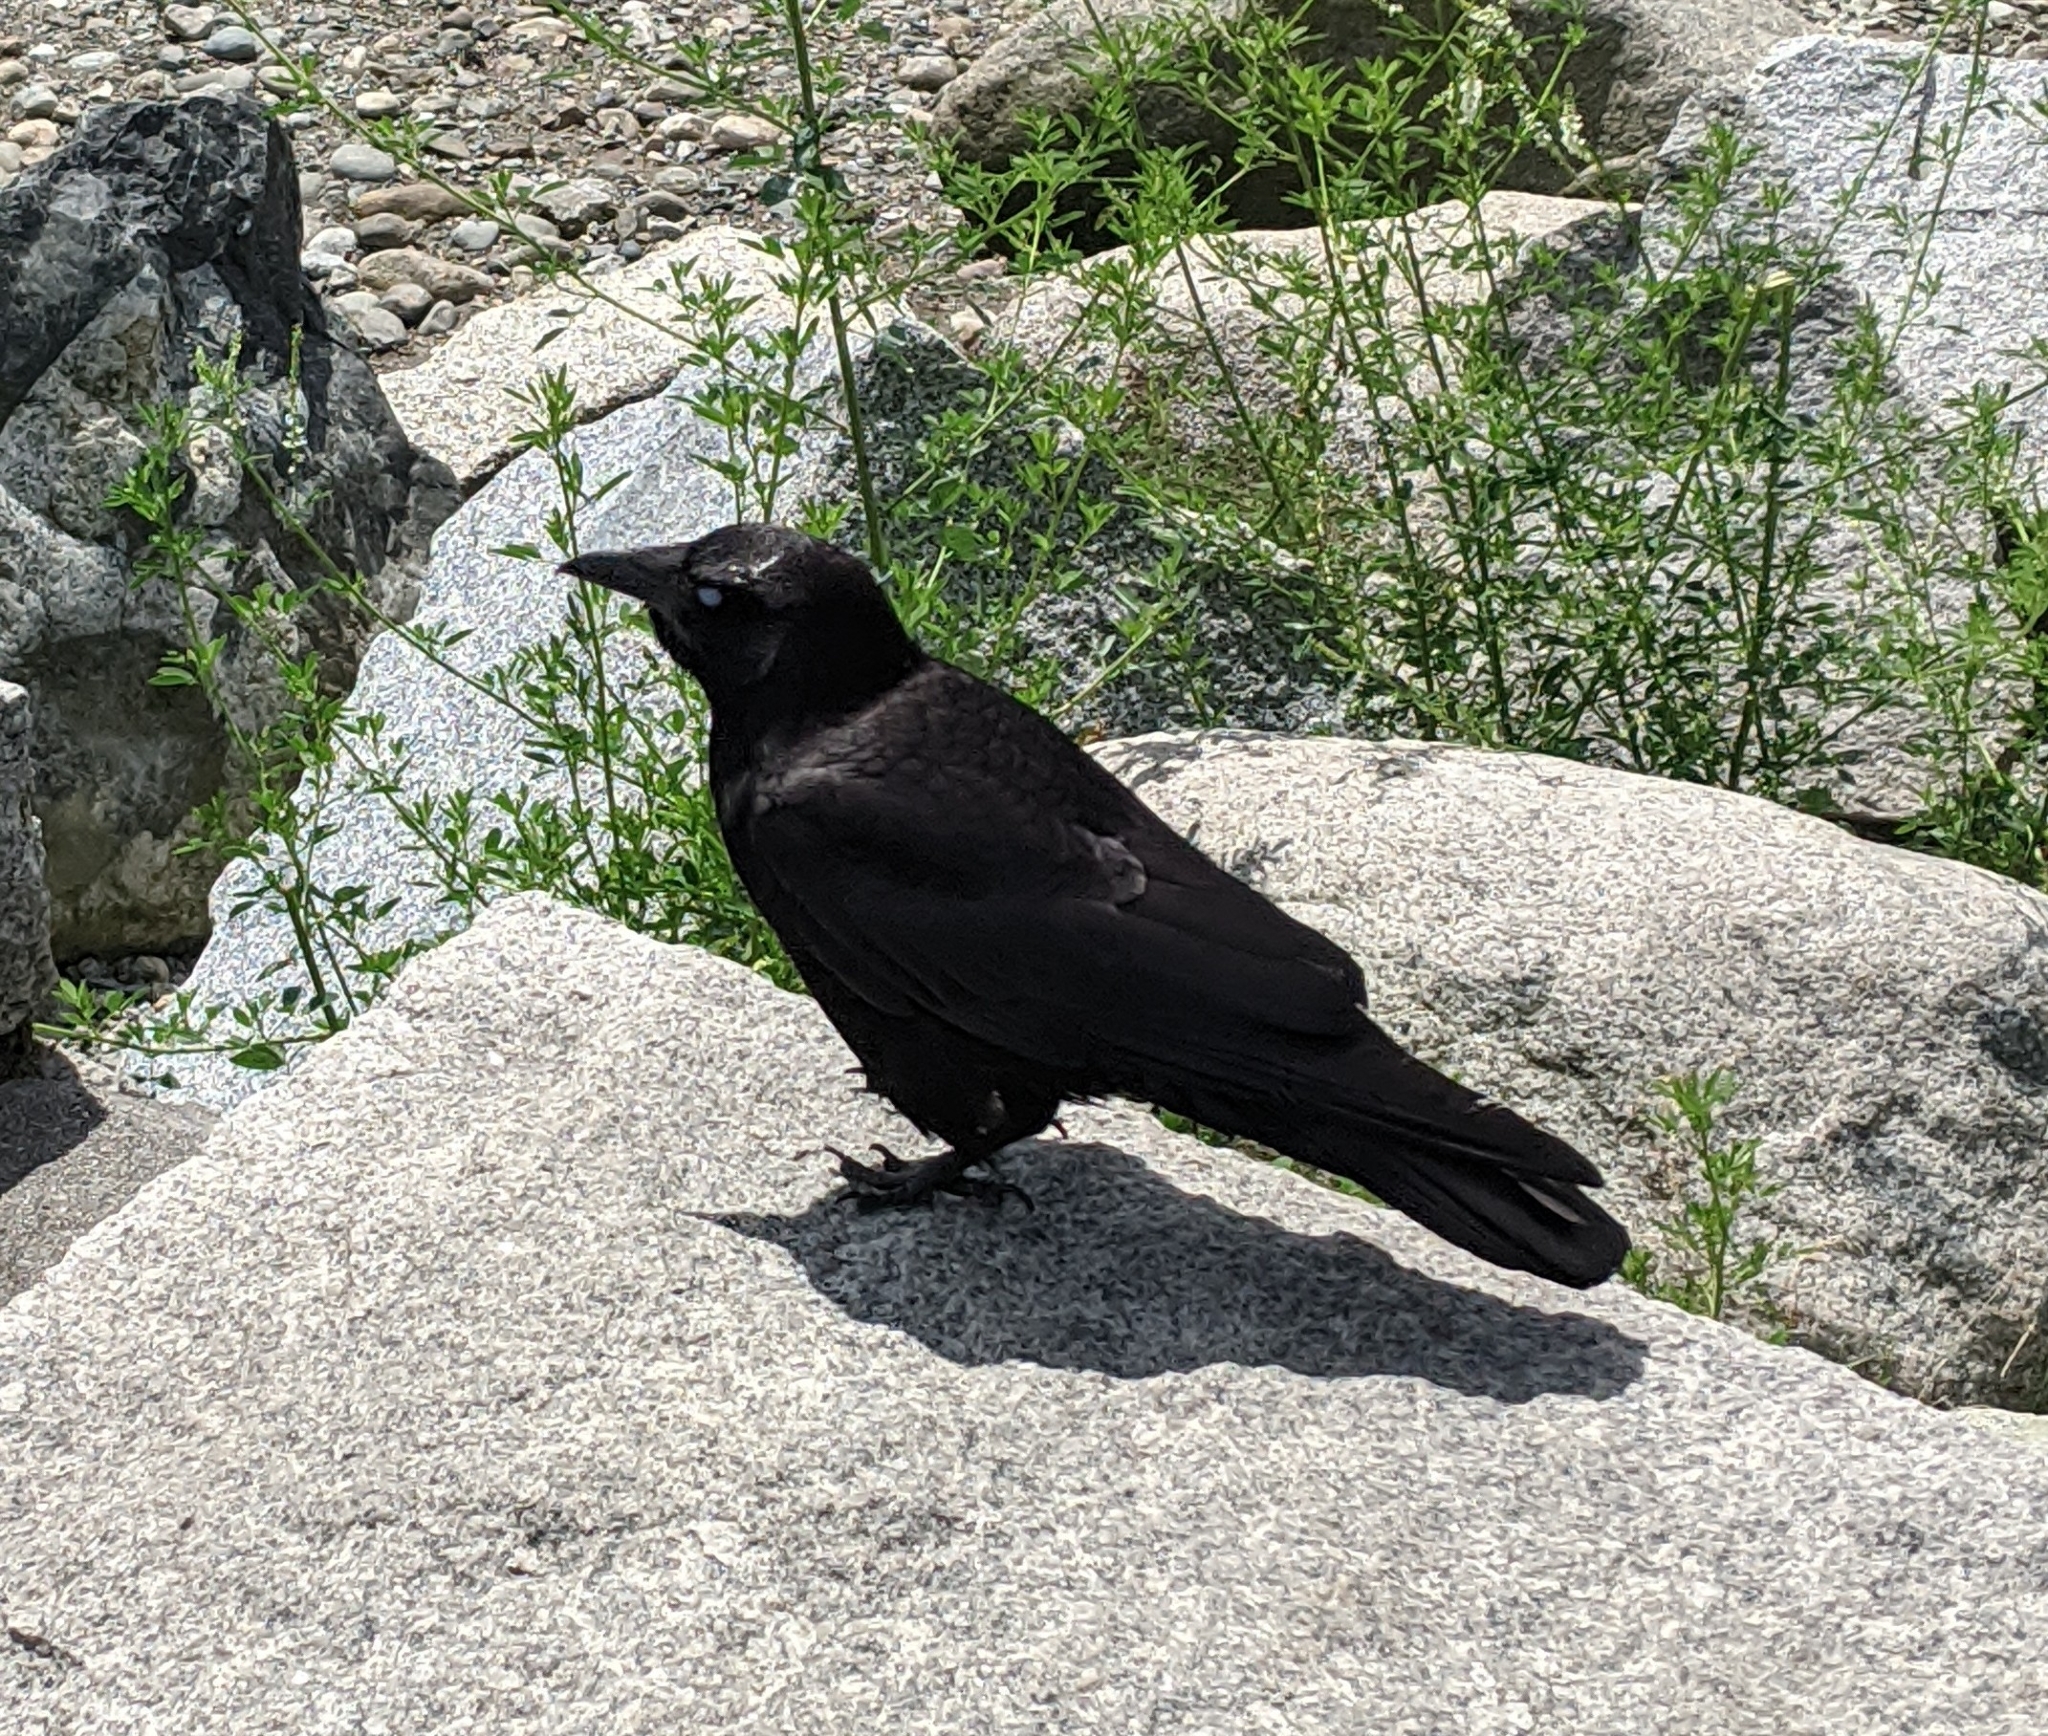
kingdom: Animalia
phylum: Chordata
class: Aves
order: Passeriformes
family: Corvidae
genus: Corvus
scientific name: Corvus brachyrhynchos
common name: American crow
